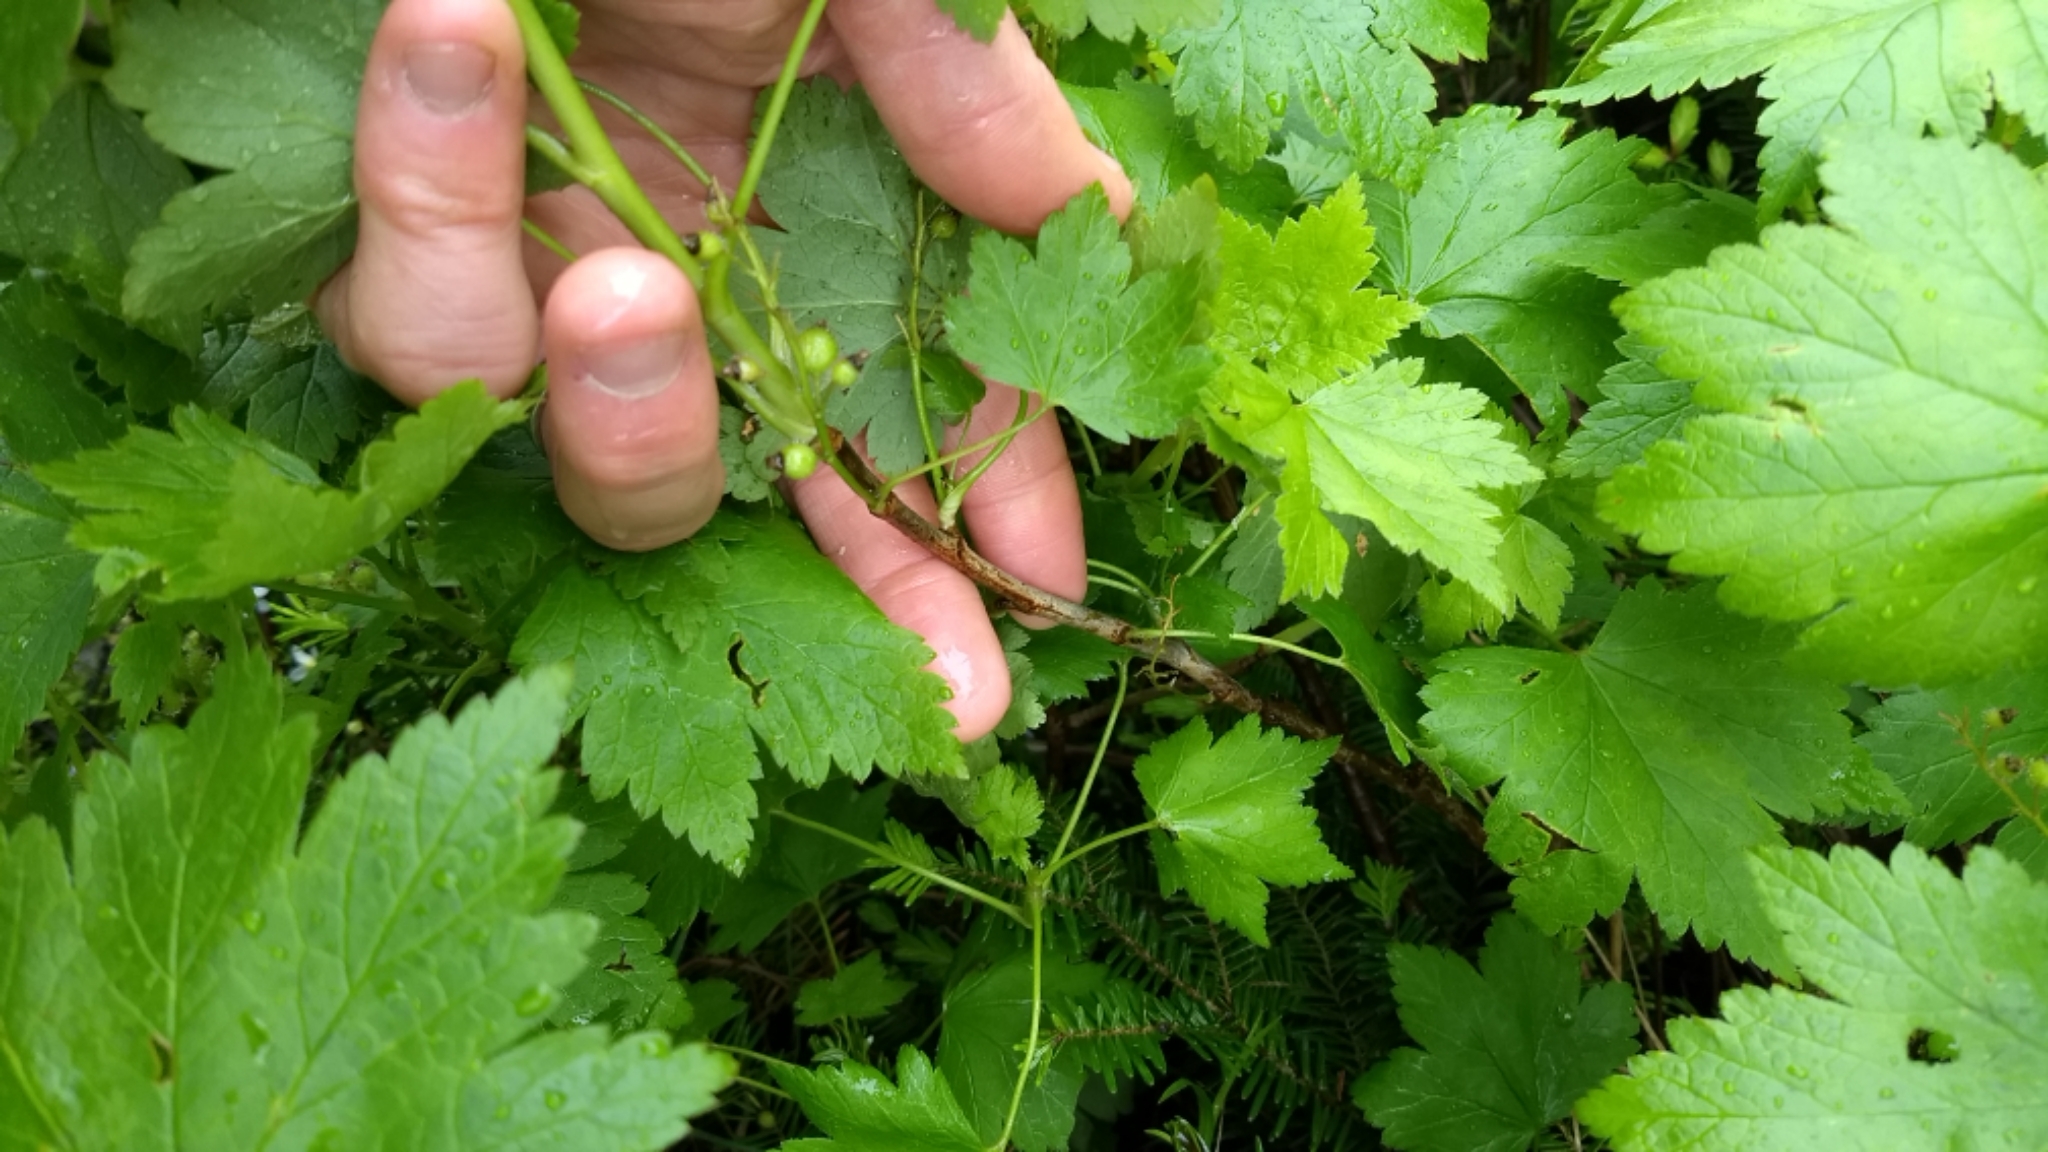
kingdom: Plantae
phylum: Tracheophyta
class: Magnoliopsida
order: Saxifragales
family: Grossulariaceae
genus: Ribes
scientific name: Ribes glandulosum
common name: Skunk currant
